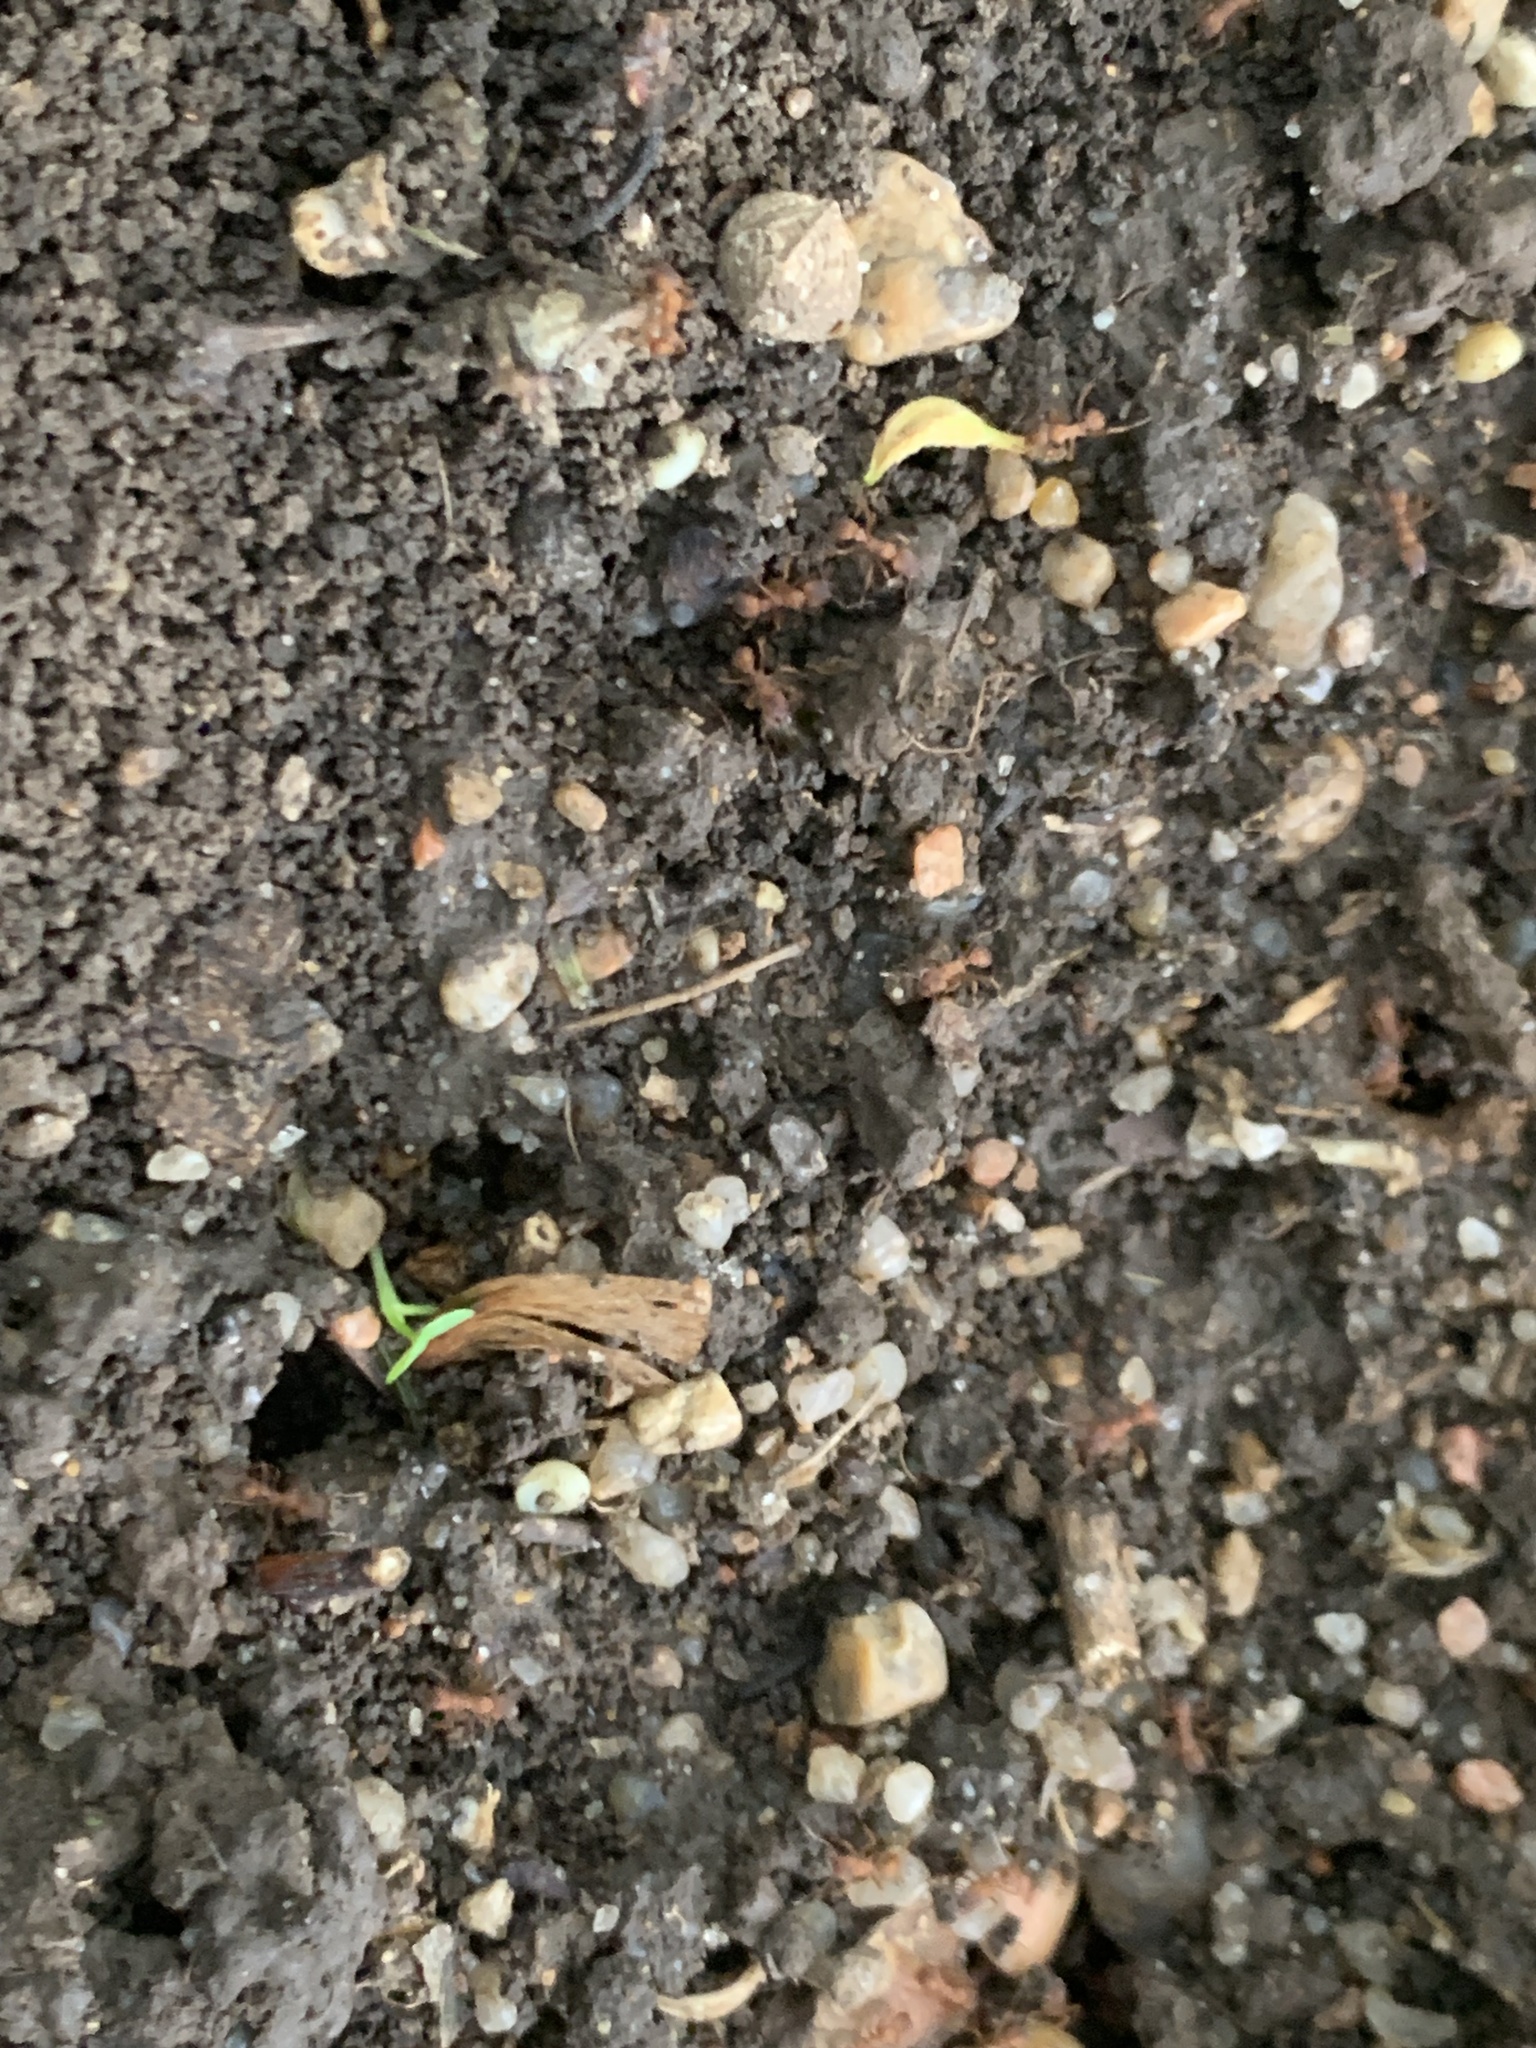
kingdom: Animalia
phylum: Arthropoda
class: Insecta
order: Hymenoptera
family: Formicidae
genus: Trachymyrmex
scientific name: Trachymyrmex septentrionalis
